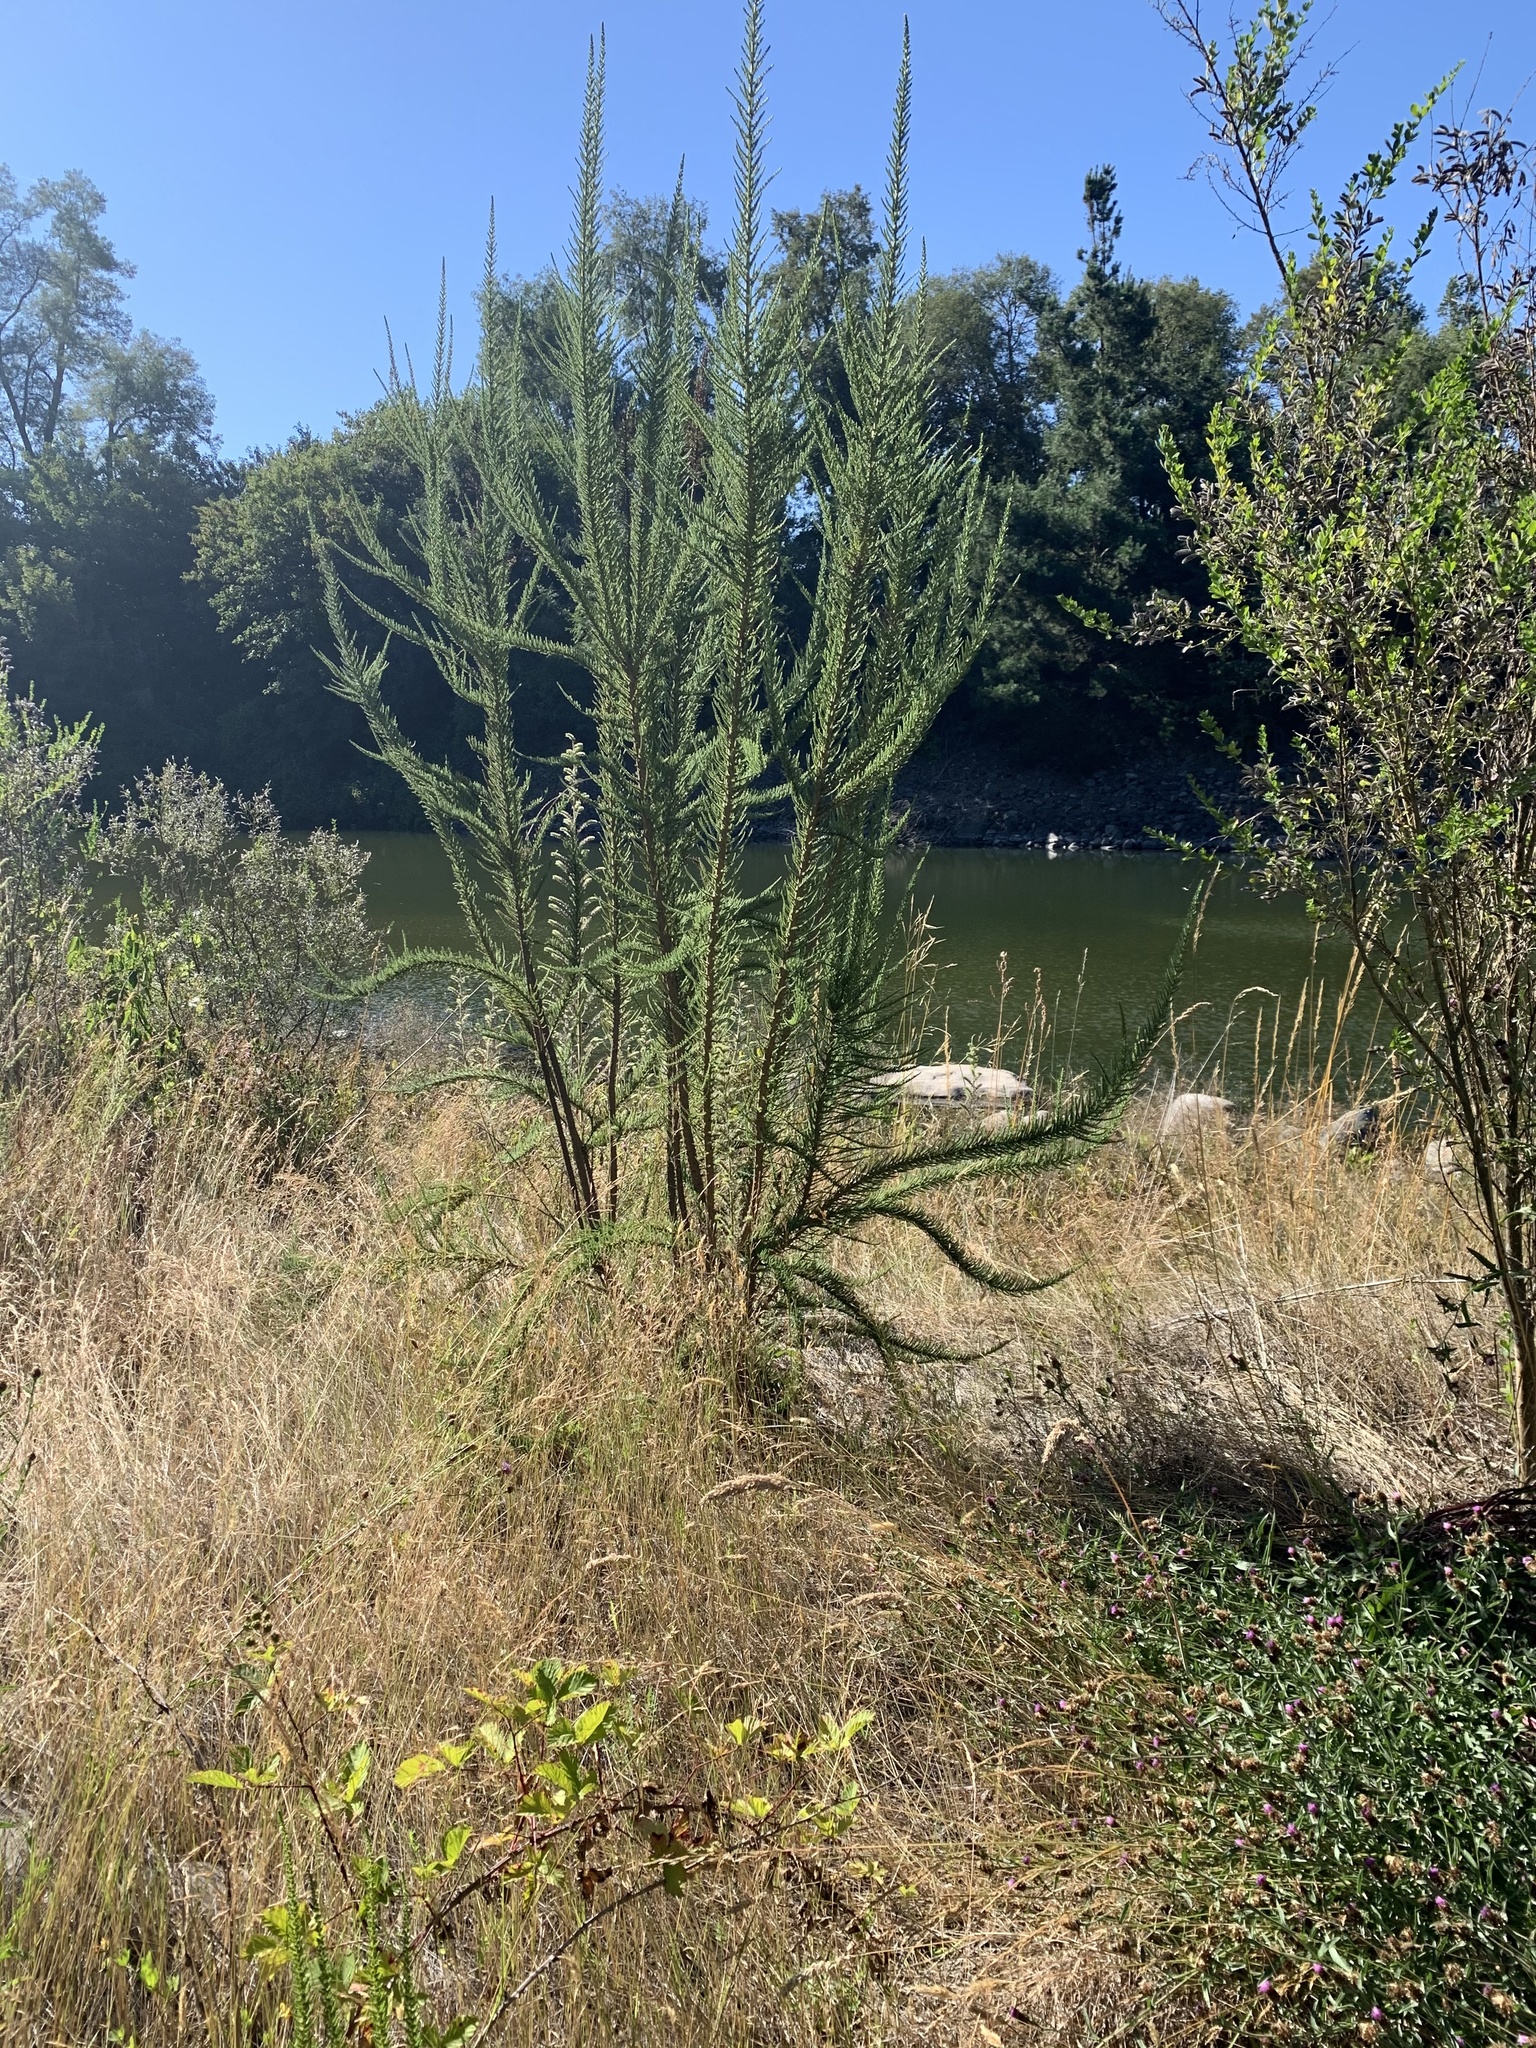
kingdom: Plantae
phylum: Tracheophyta
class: Magnoliopsida
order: Solanales
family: Solanaceae
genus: Fabiana
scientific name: Fabiana imbricata
